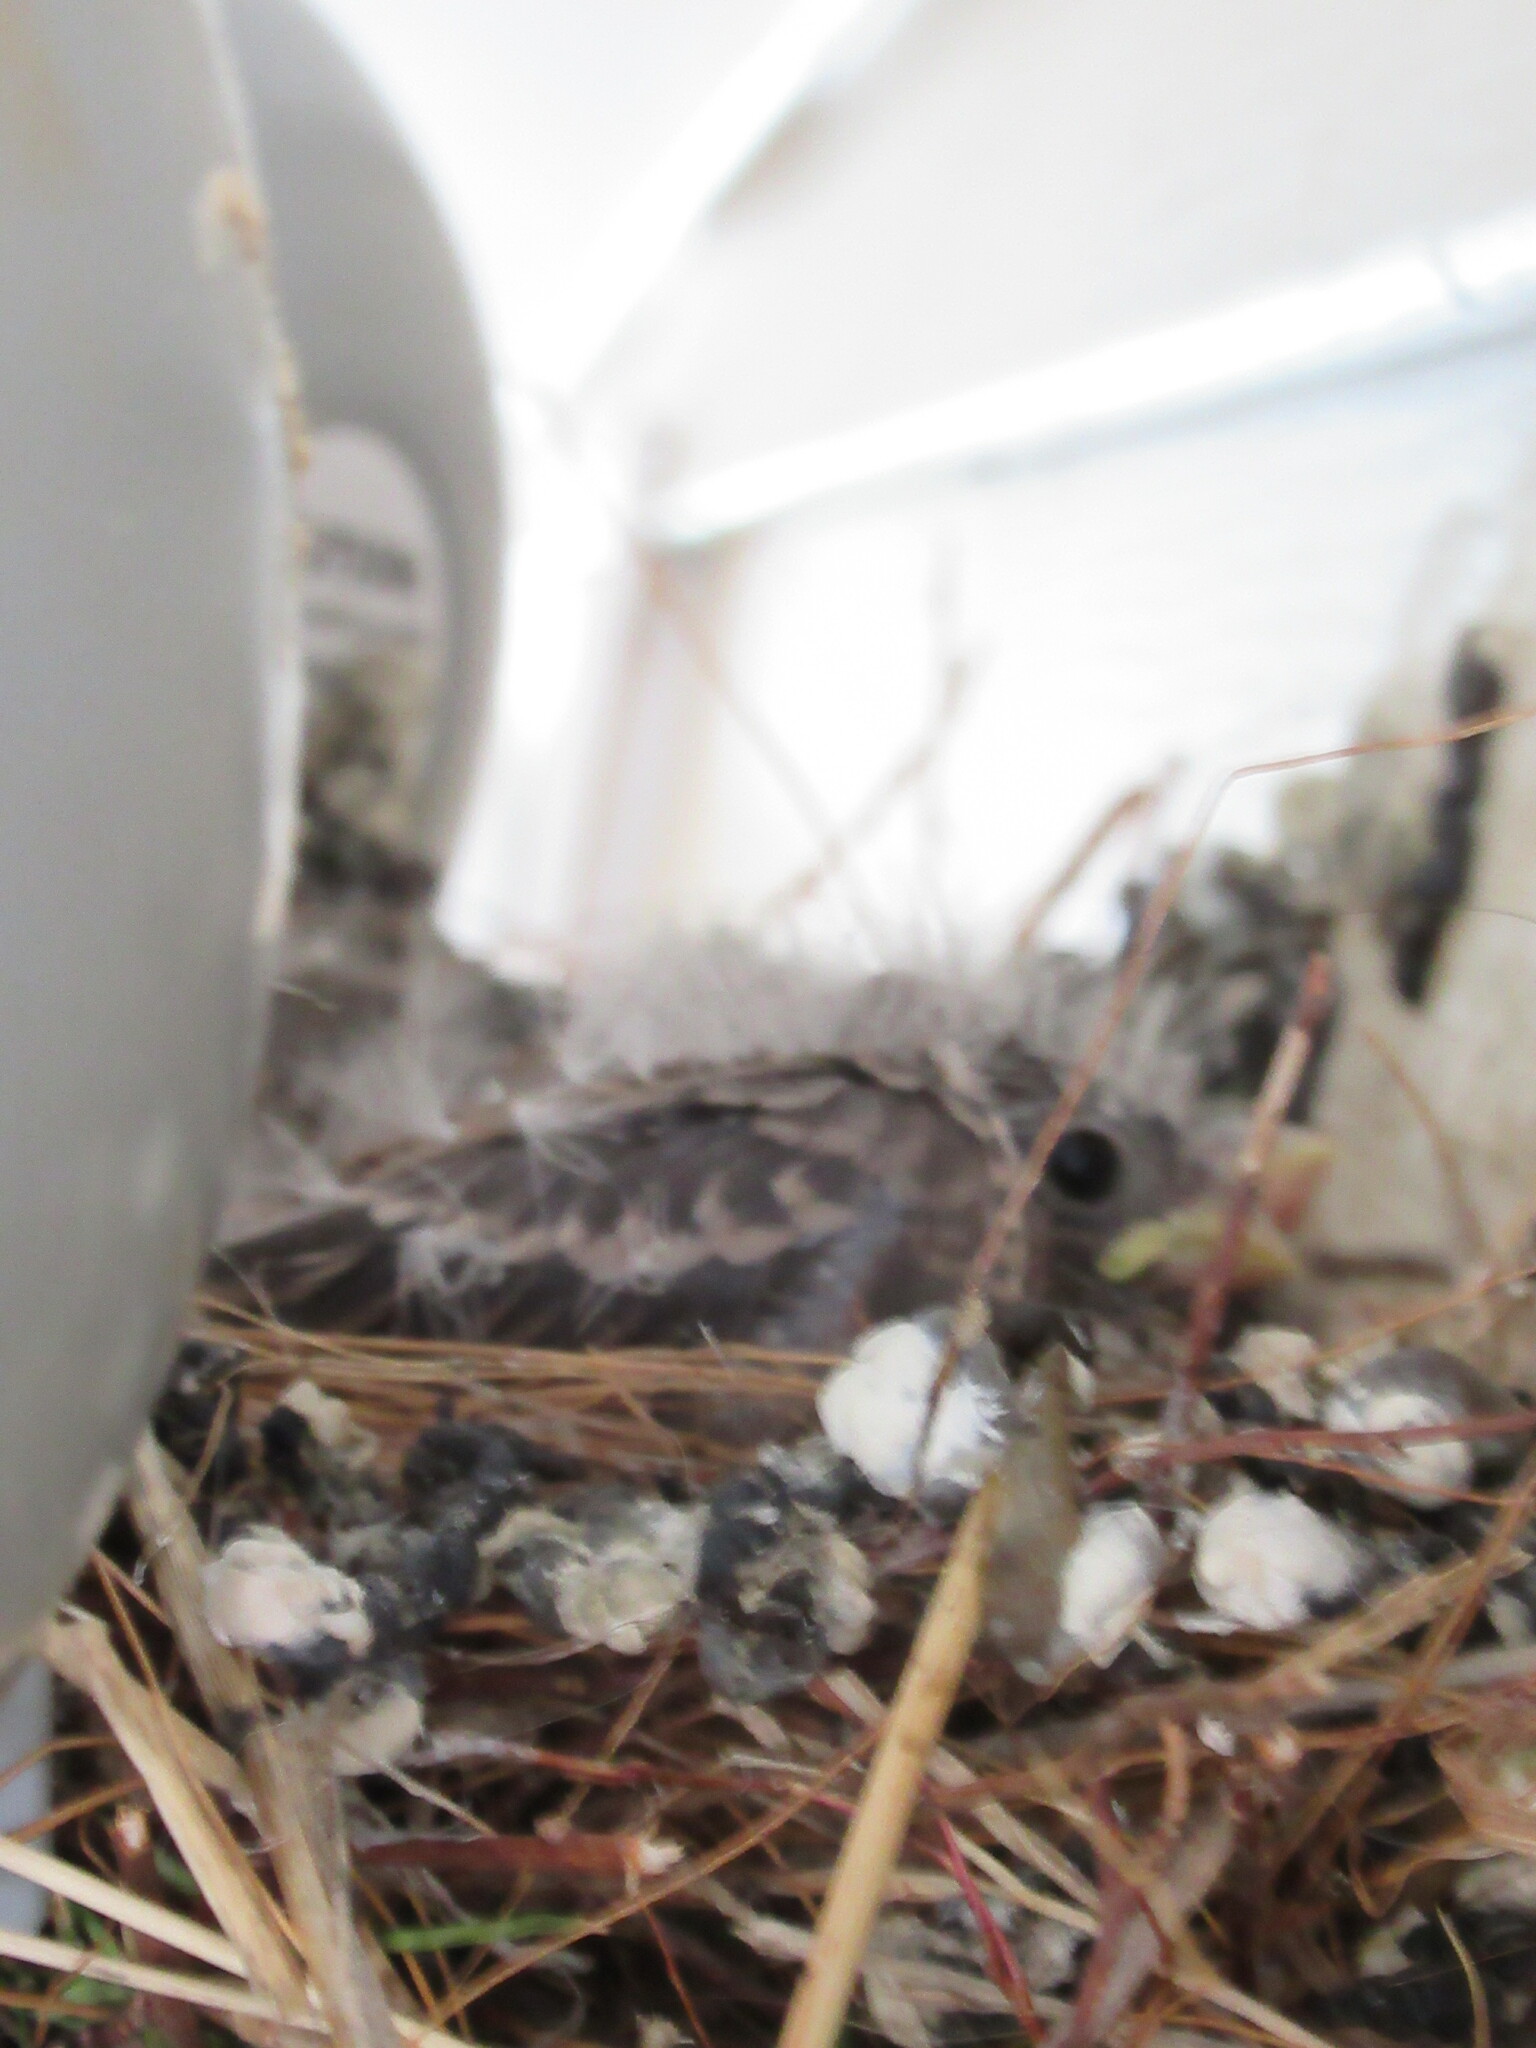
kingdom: Animalia
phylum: Chordata
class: Aves
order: Passeriformes
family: Fringillidae
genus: Haemorhous
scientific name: Haemorhous mexicanus
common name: House finch
